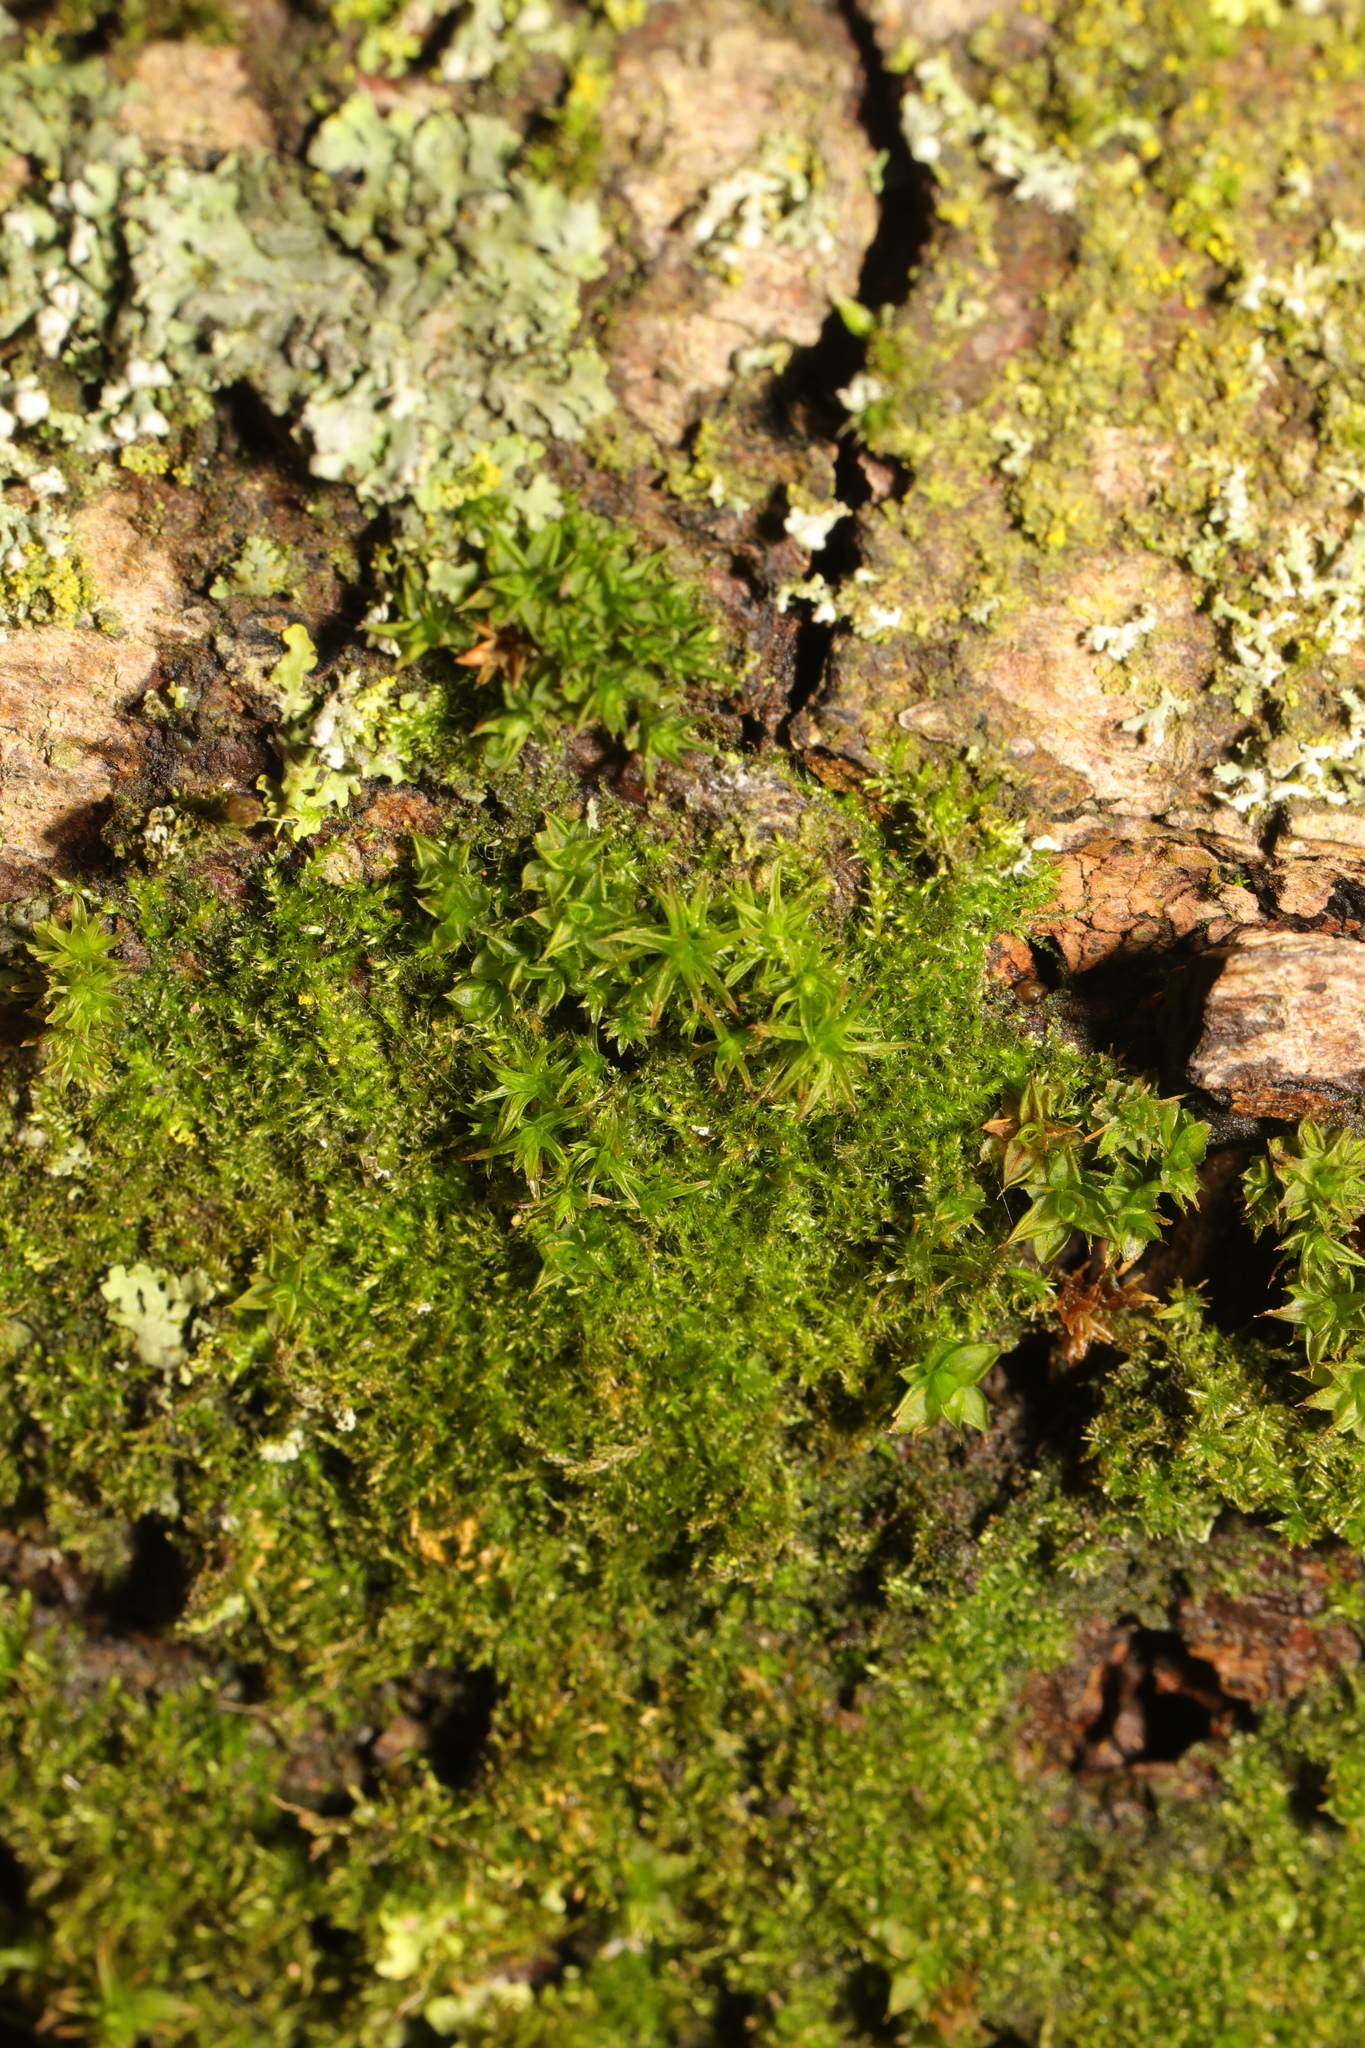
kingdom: Plantae
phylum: Bryophyta
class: Bryopsida
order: Pottiales
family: Pottiaceae
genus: Syntrichia
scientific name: Syntrichia papillosa
